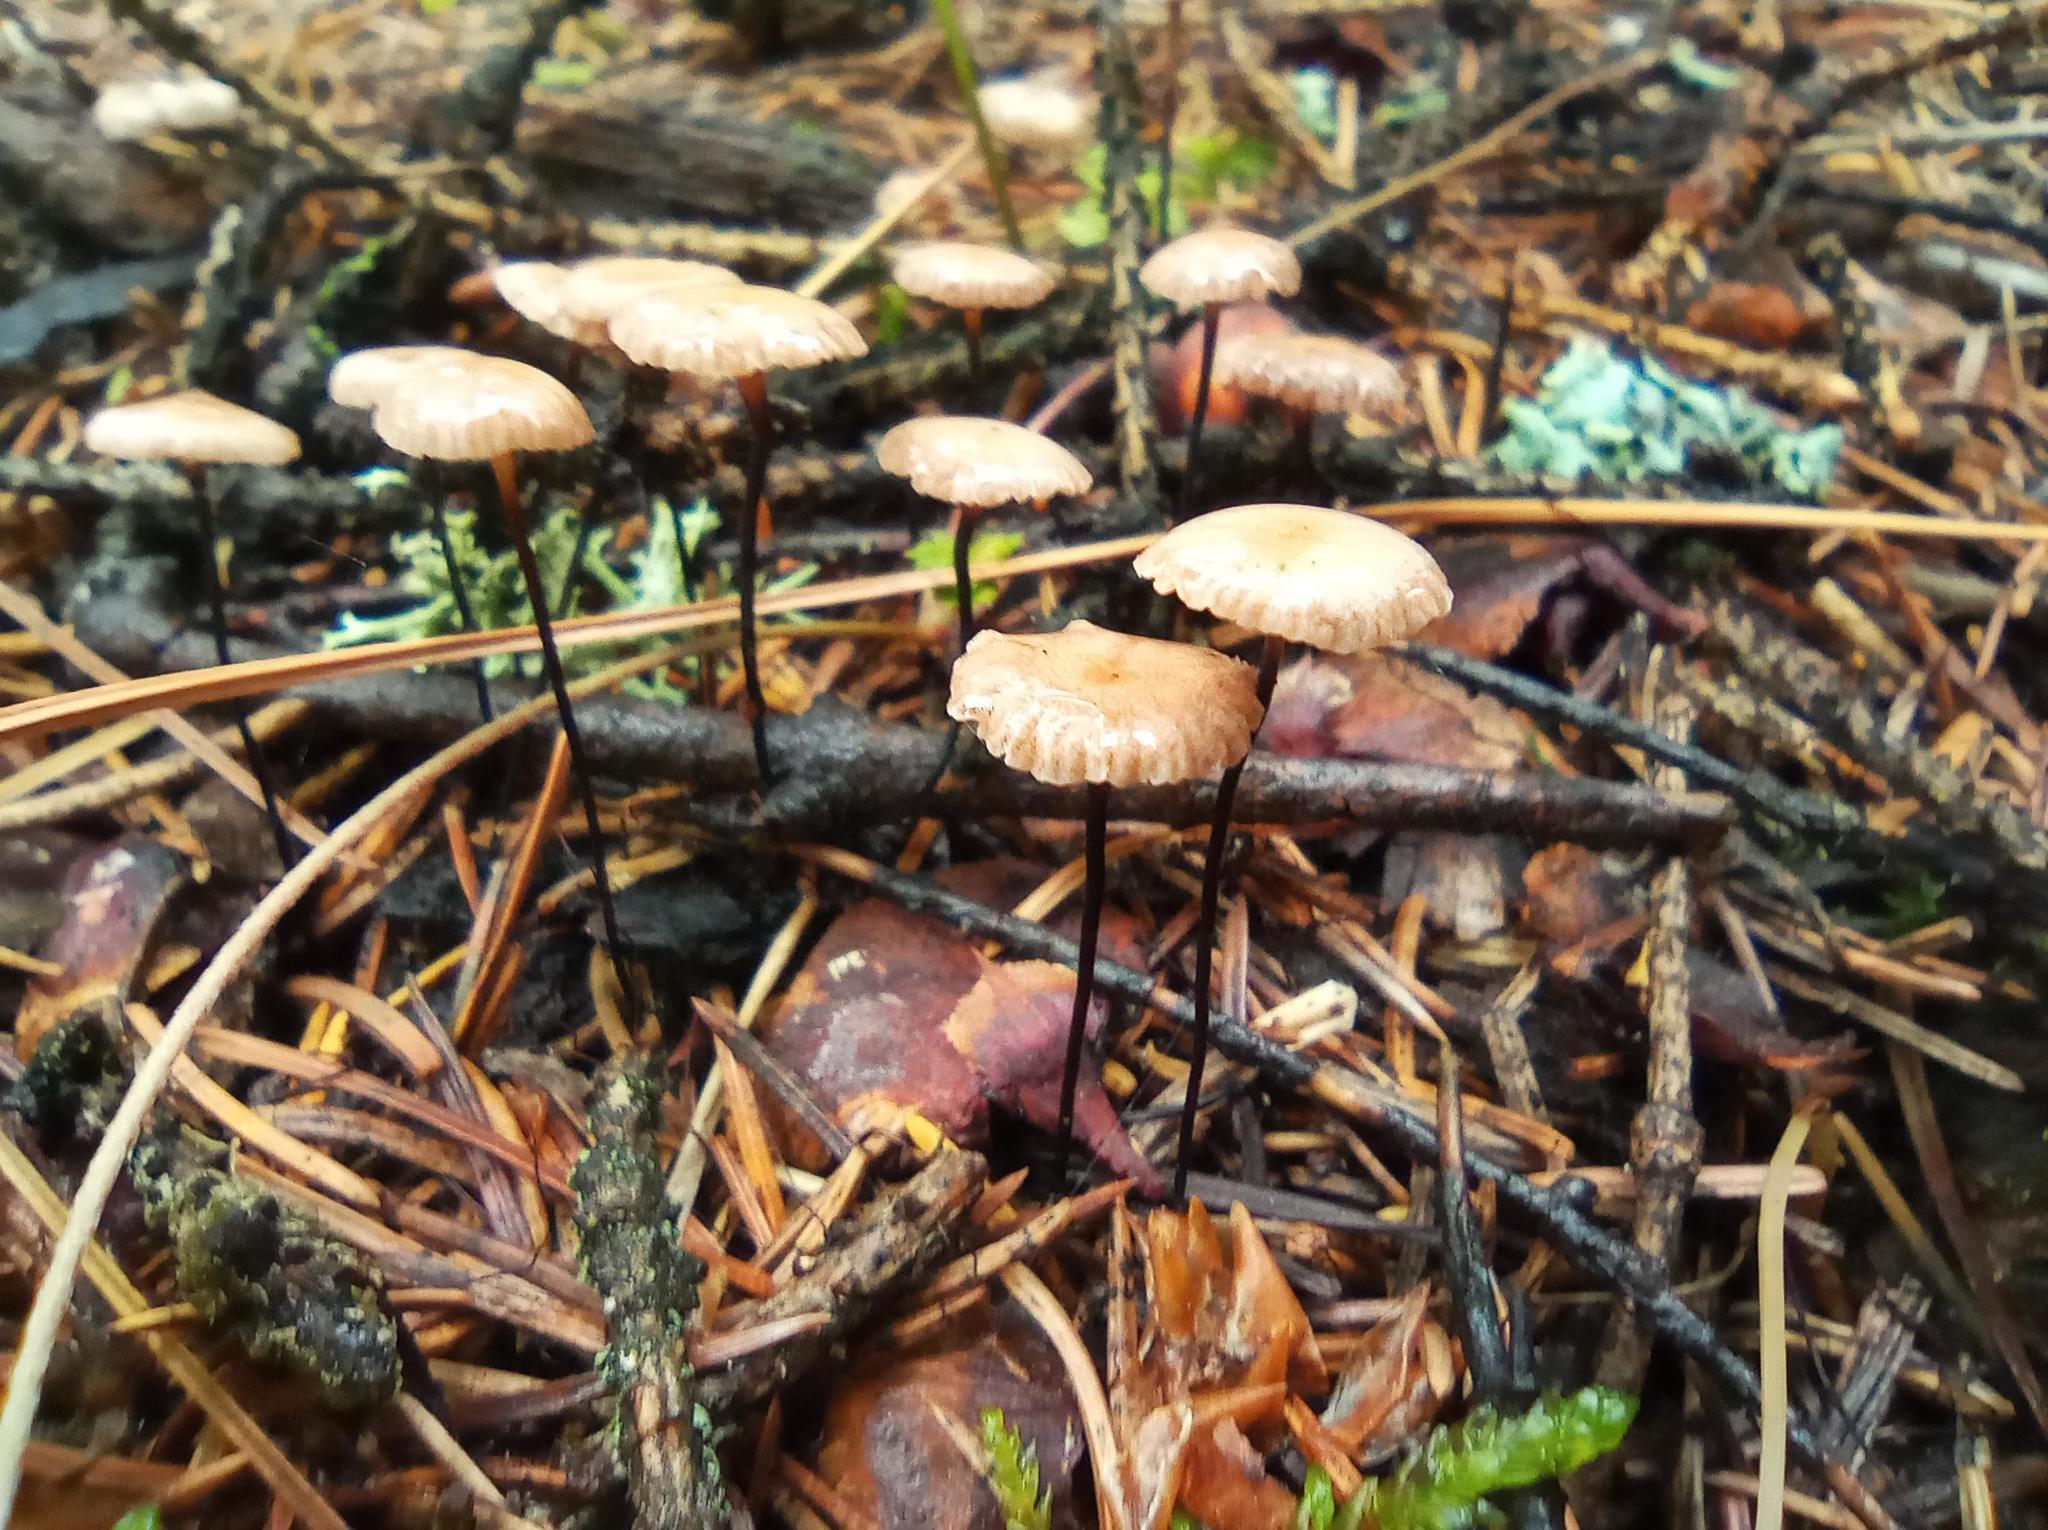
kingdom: Fungi
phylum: Basidiomycota
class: Agaricomycetes
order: Agaricales
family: Omphalotaceae
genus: Gymnopus
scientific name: Gymnopus androsaceus
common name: Horse-hair fungus
